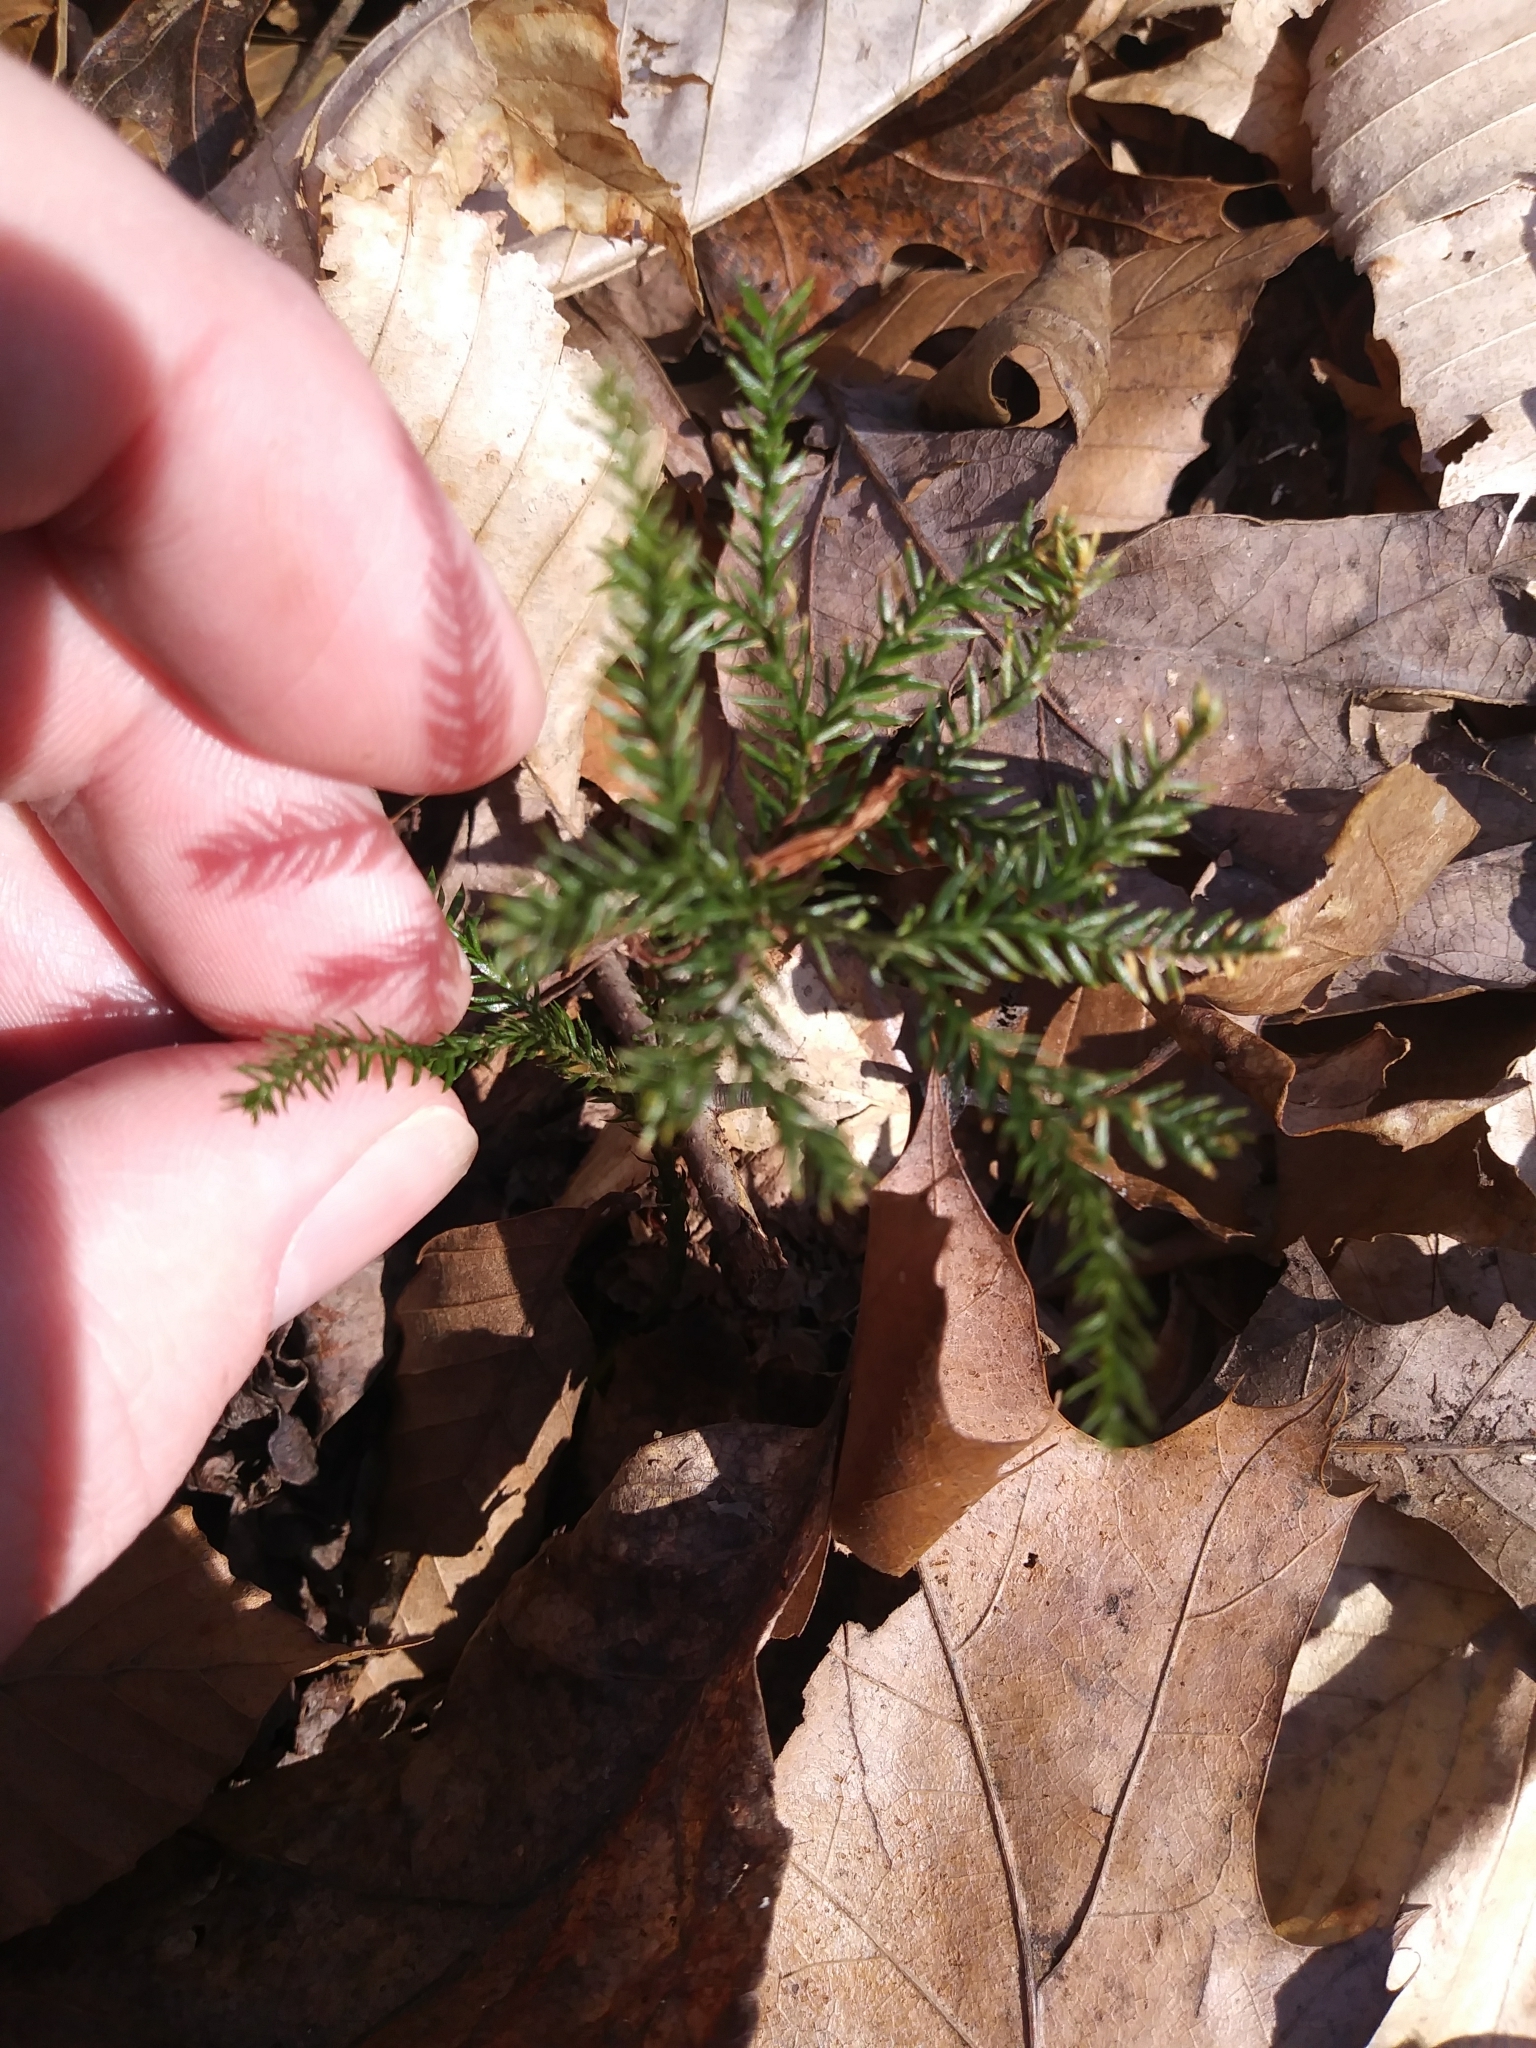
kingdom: Plantae
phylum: Tracheophyta
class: Lycopodiopsida
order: Lycopodiales
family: Lycopodiaceae
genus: Dendrolycopodium
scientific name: Dendrolycopodium obscurum
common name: Common ground-pine
